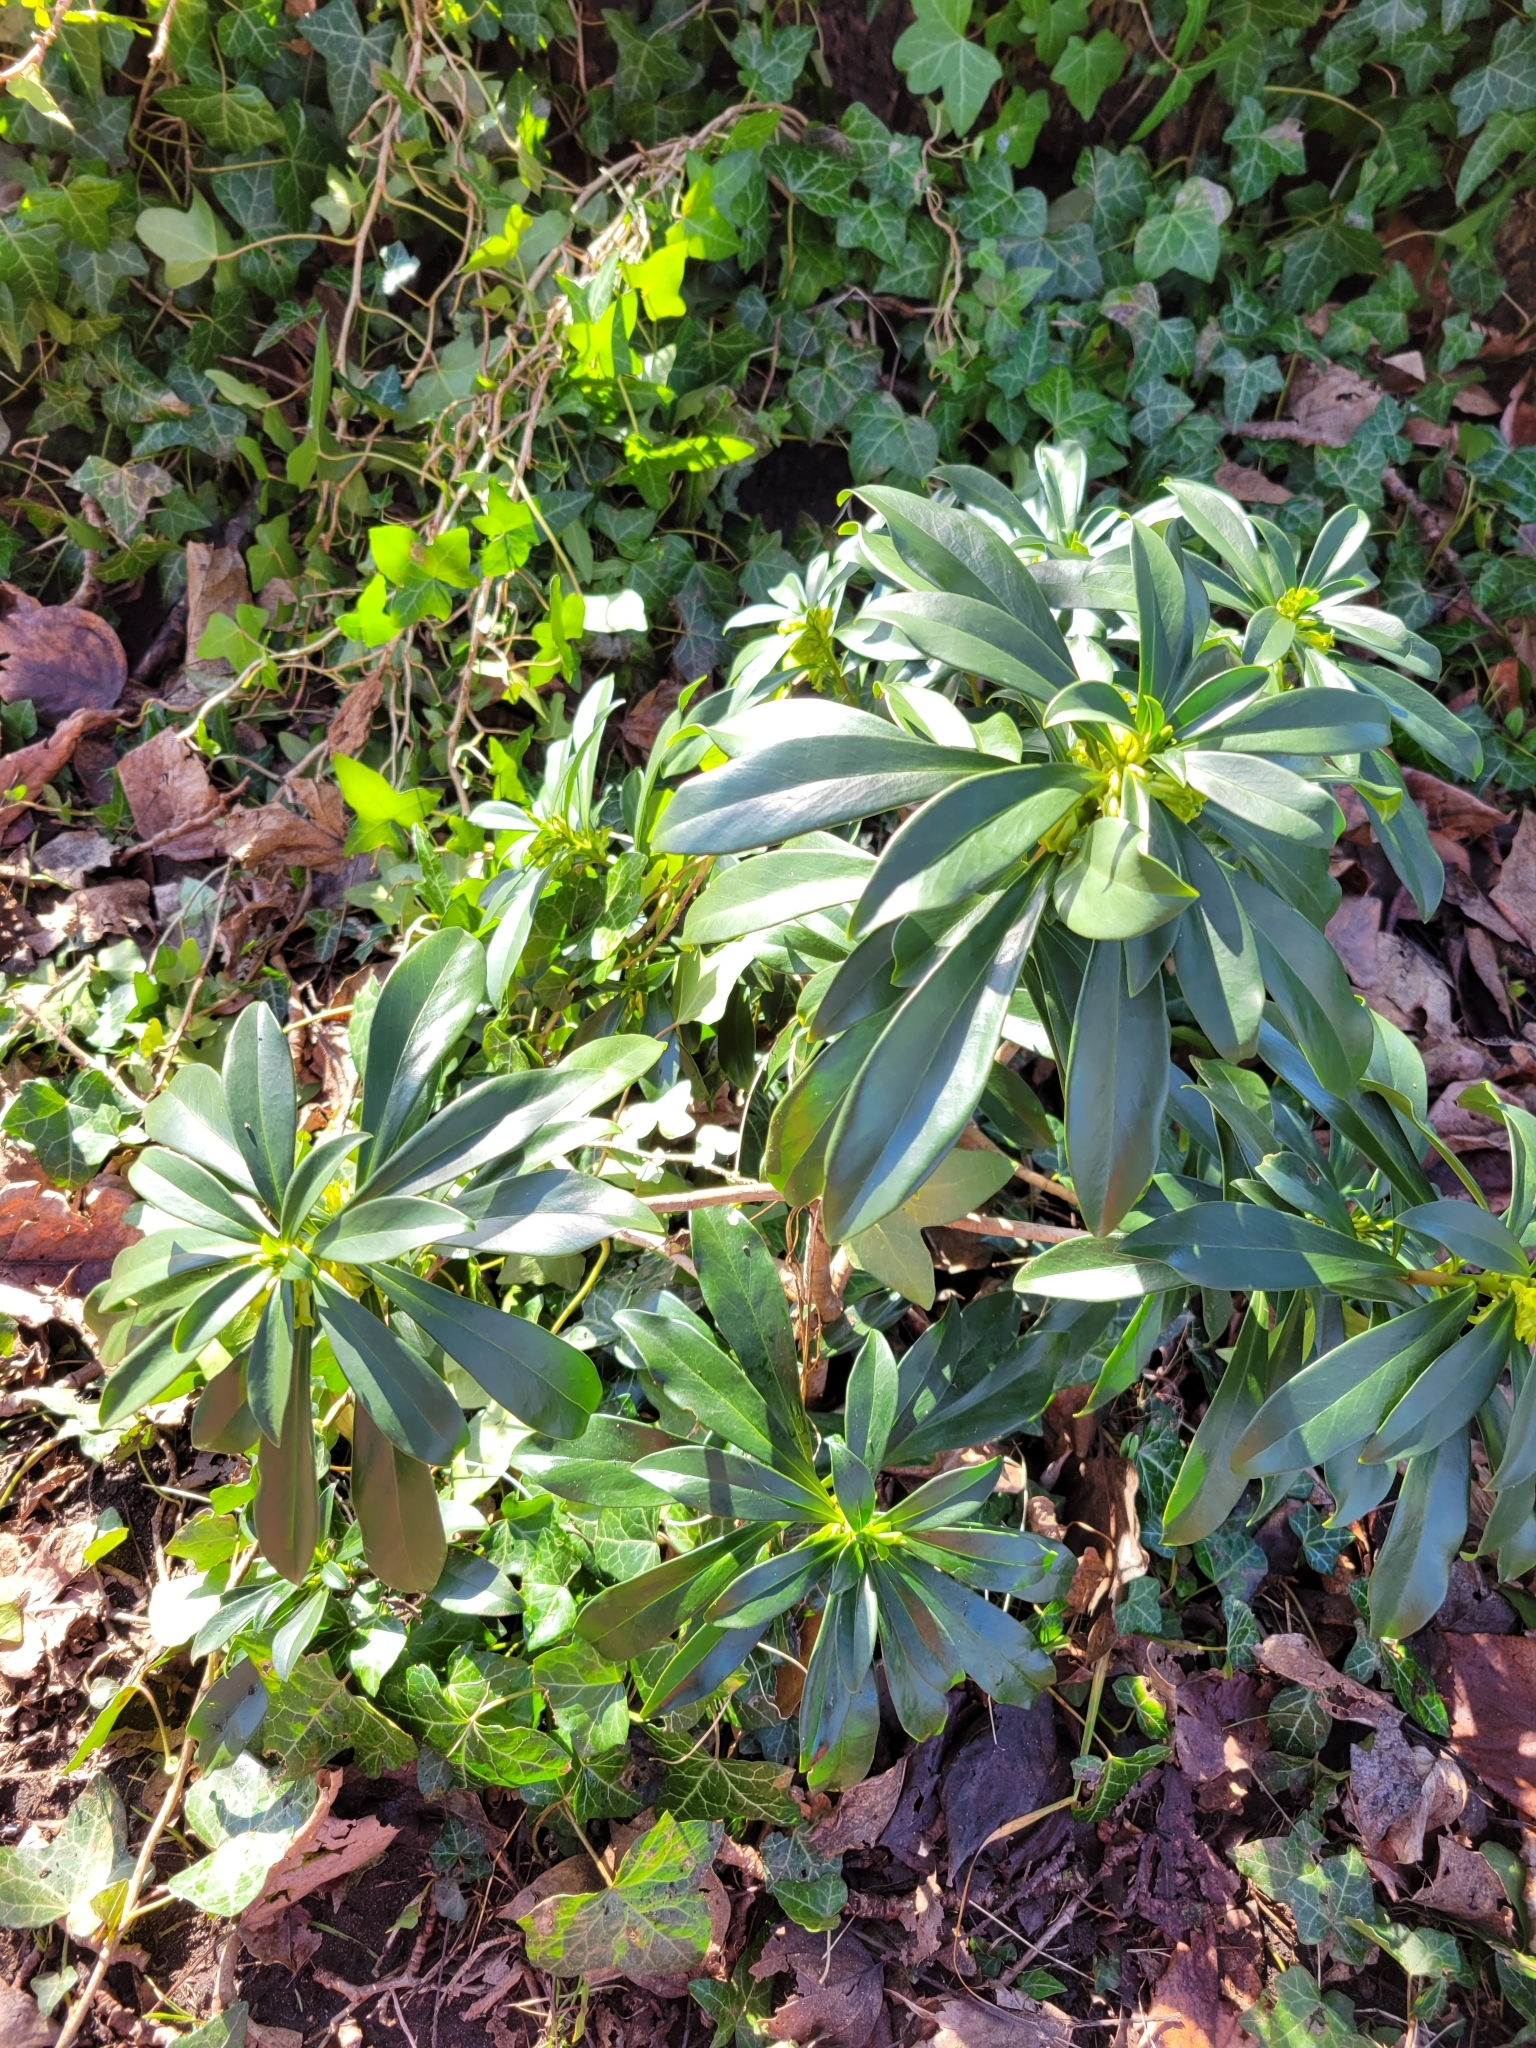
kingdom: Plantae
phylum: Tracheophyta
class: Magnoliopsida
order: Malvales
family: Thymelaeaceae
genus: Daphne
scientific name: Daphne laureola
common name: Spurge-laurel
